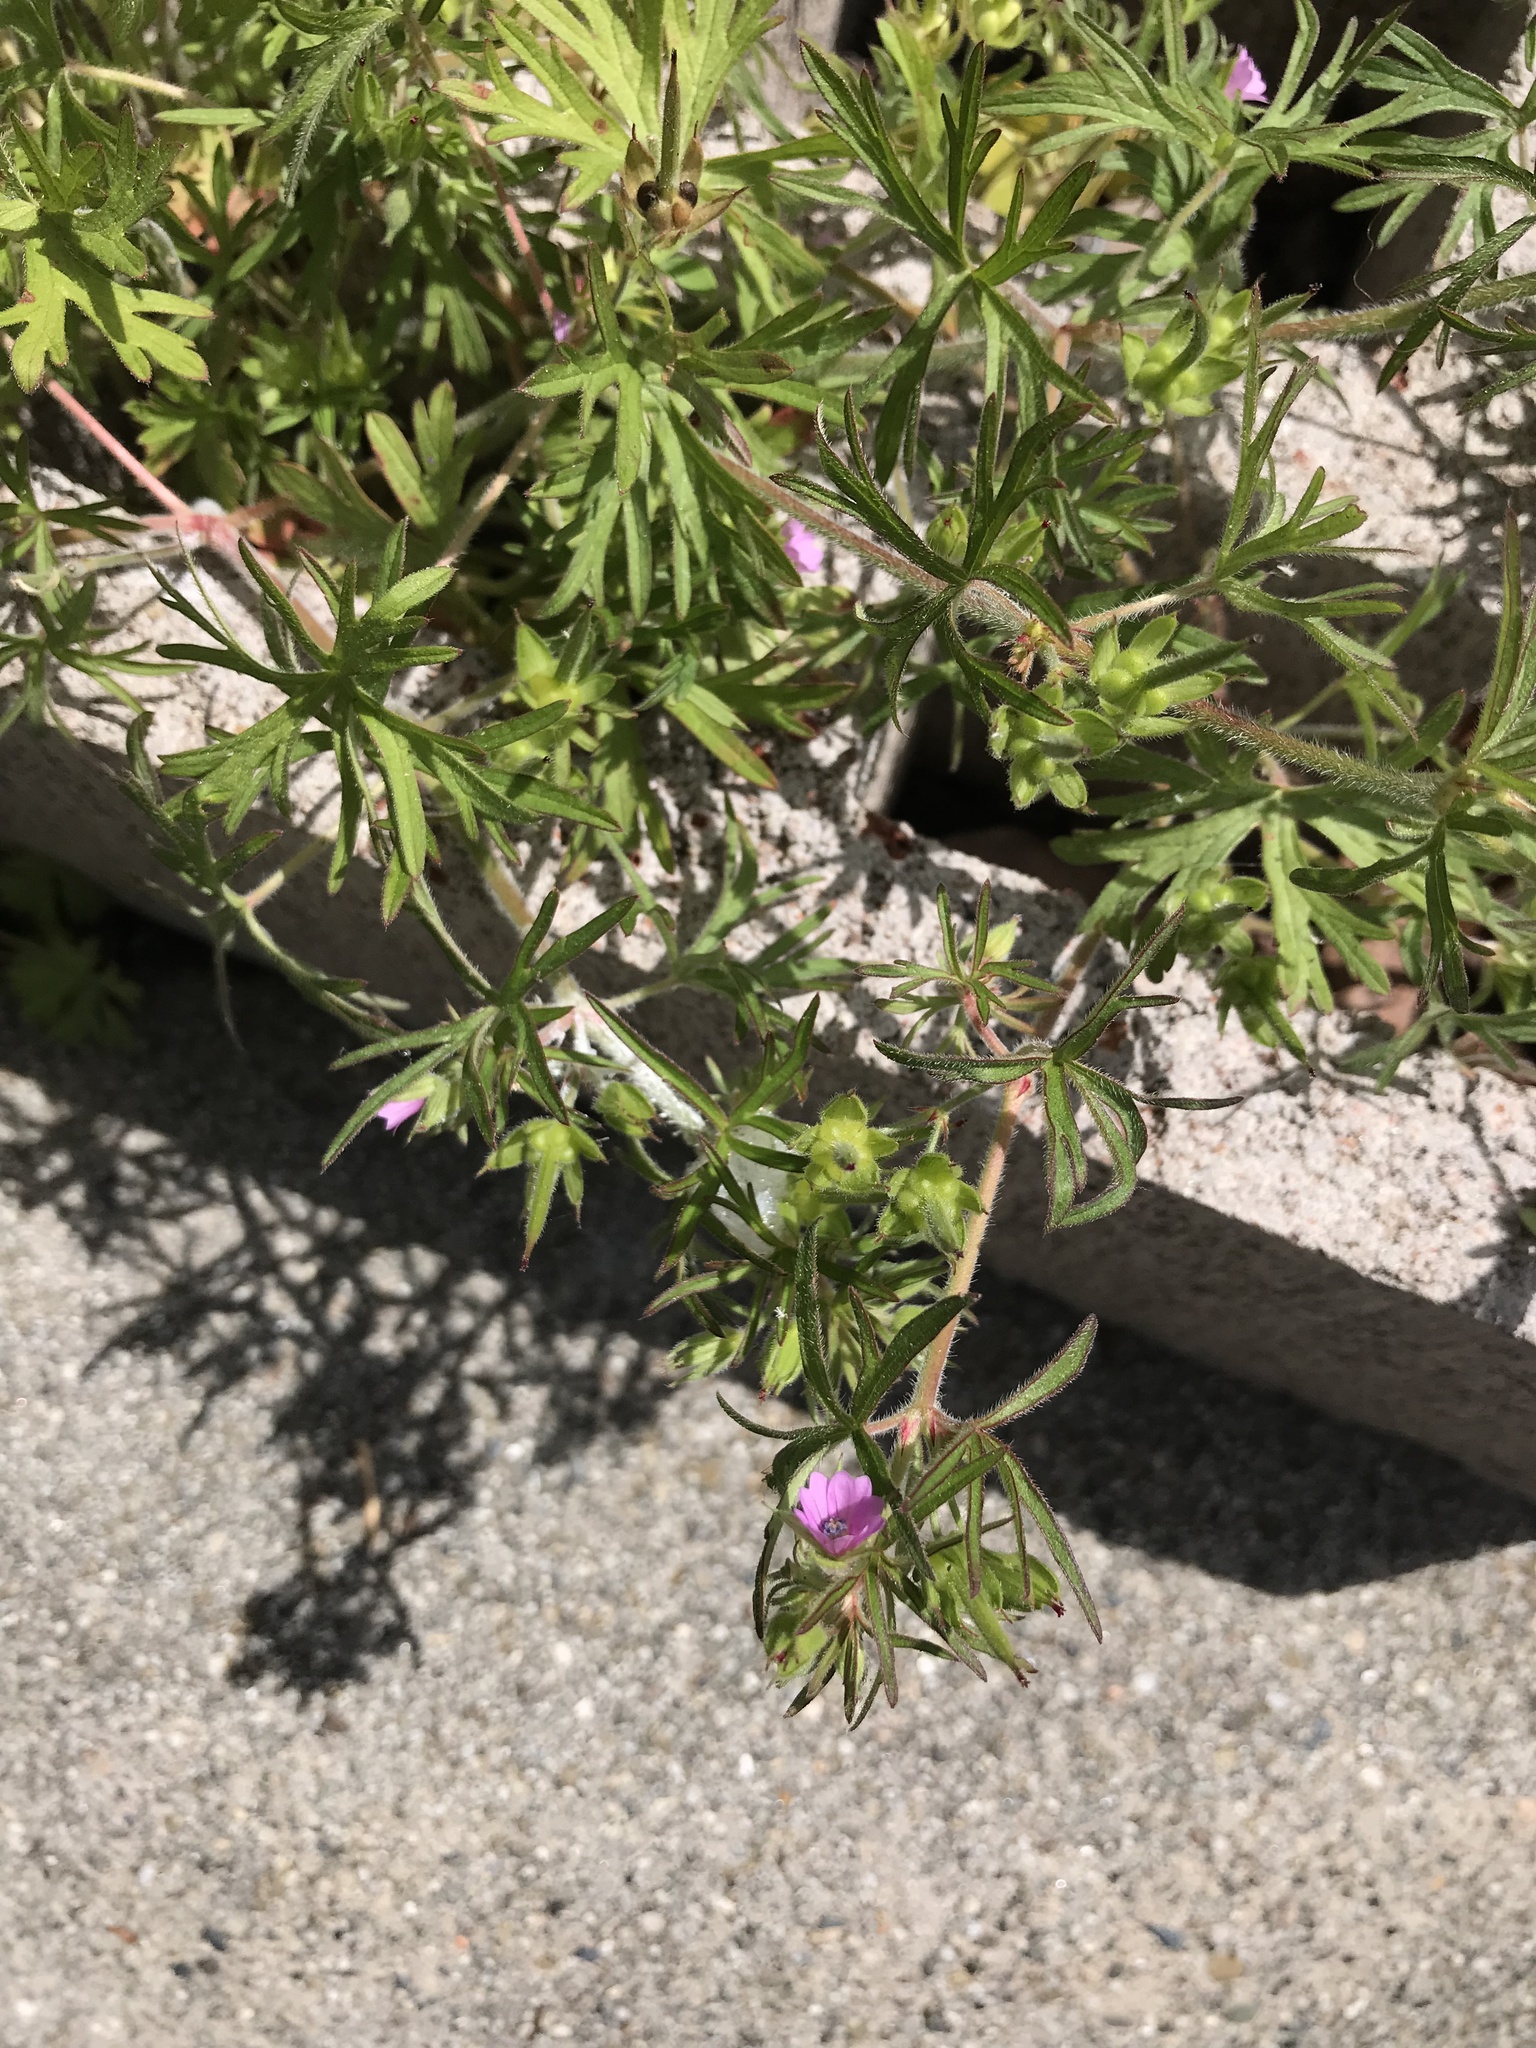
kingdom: Plantae
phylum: Tracheophyta
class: Magnoliopsida
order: Geraniales
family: Geraniaceae
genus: Geranium
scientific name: Geranium dissectum
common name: Cut-leaved crane's-bill
